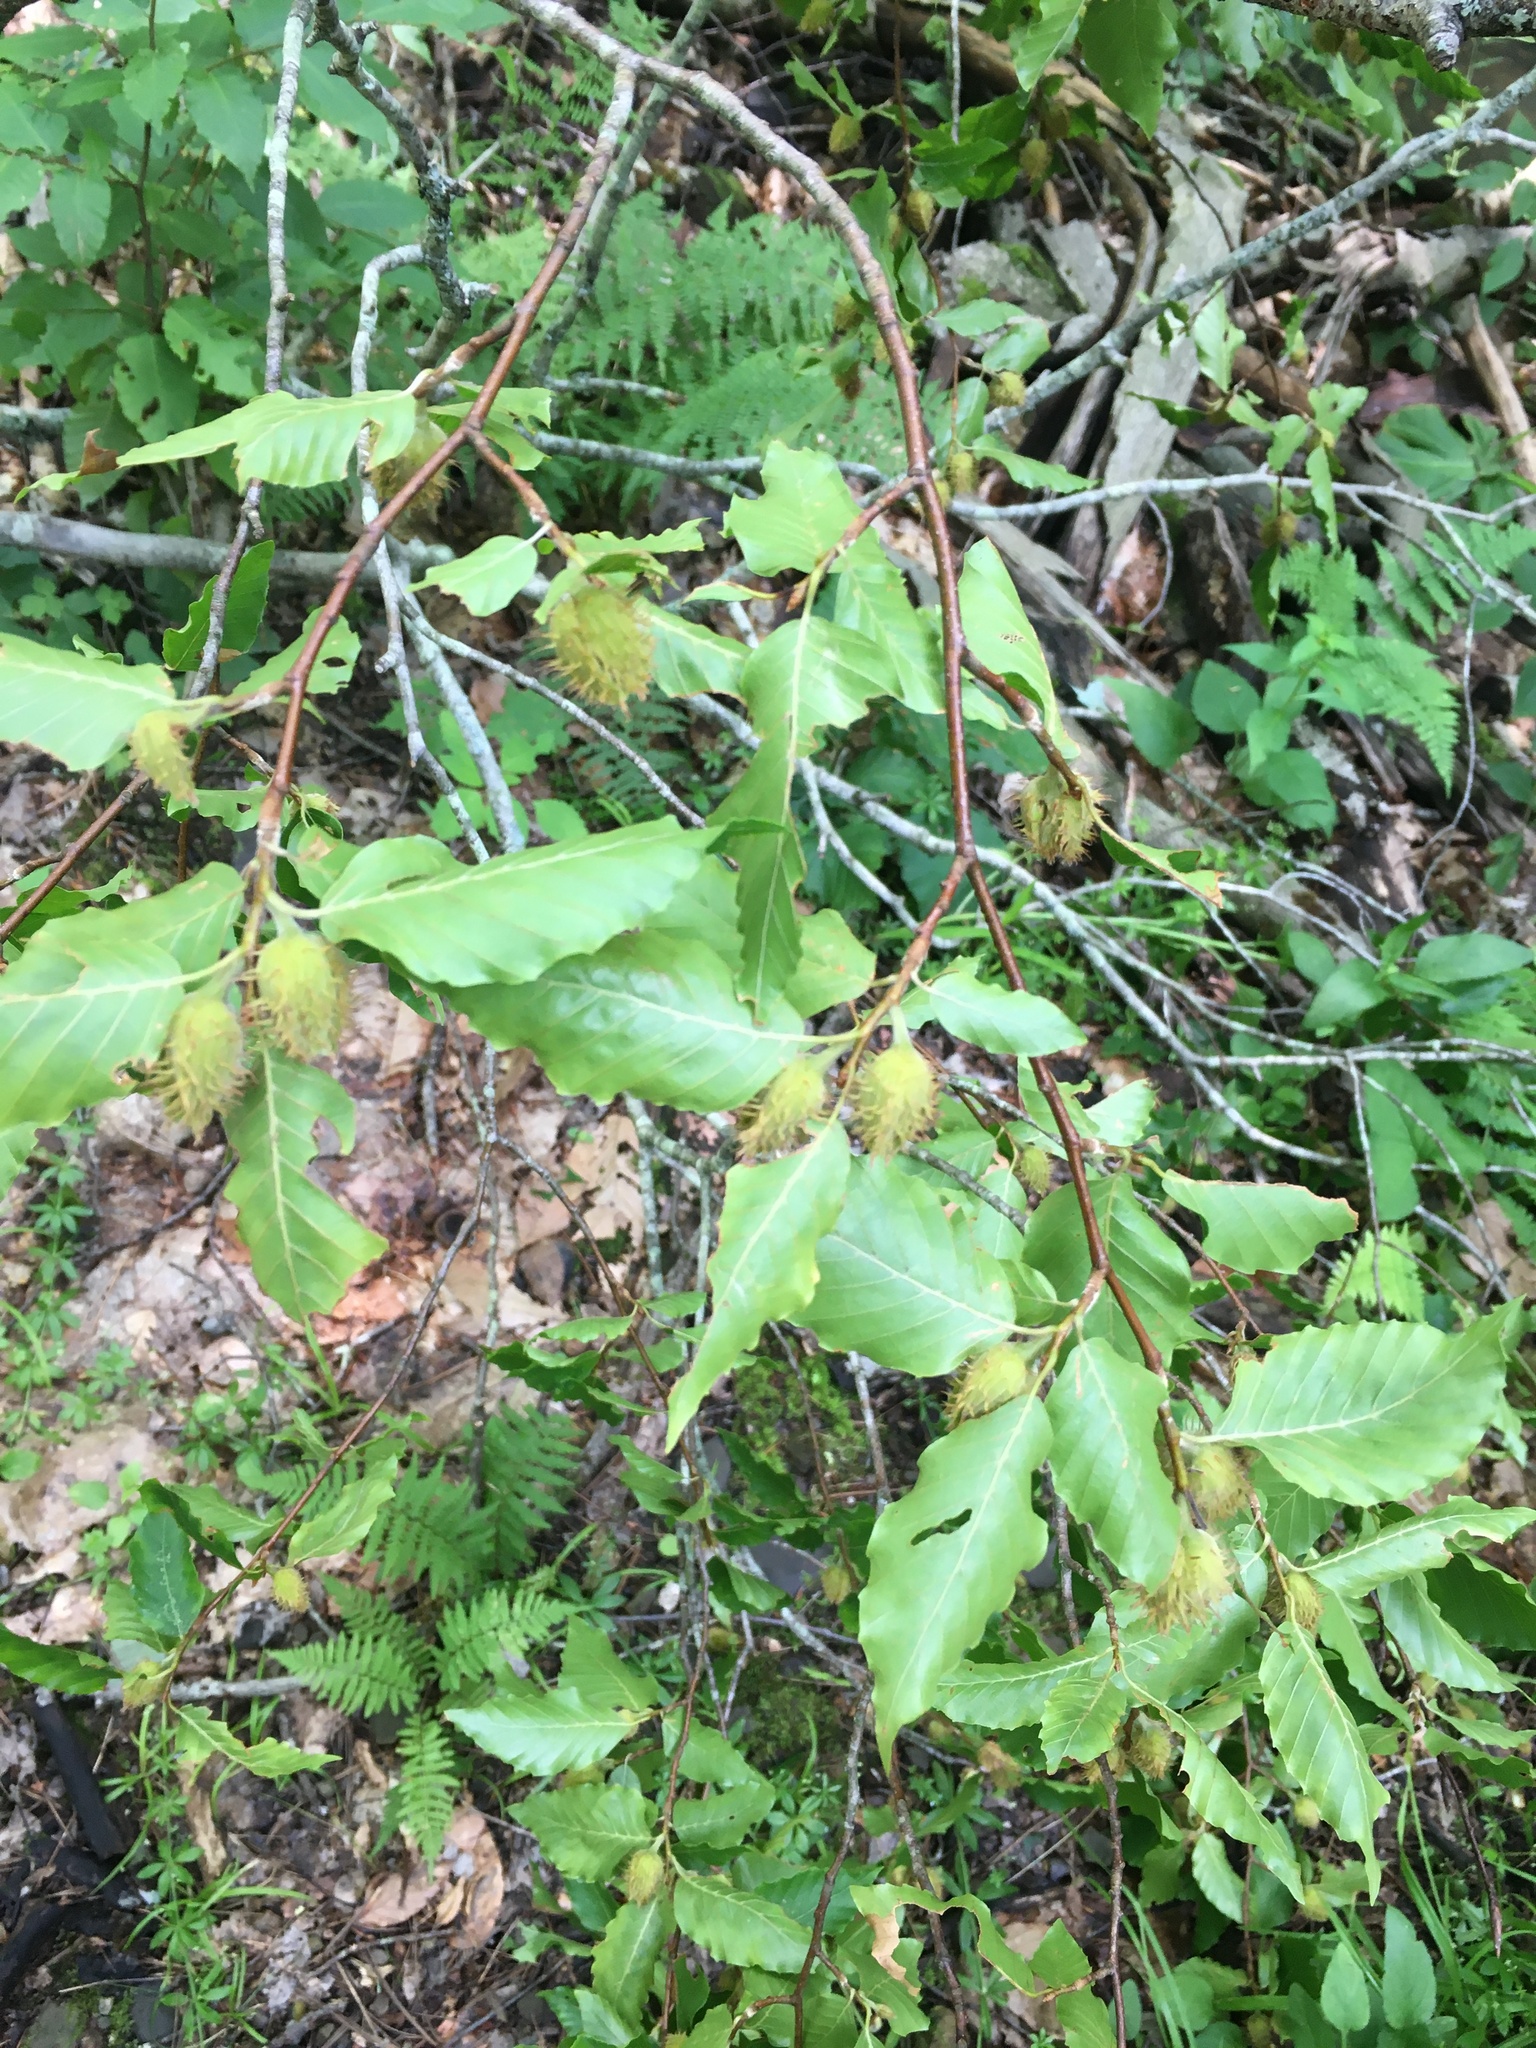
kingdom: Plantae
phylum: Tracheophyta
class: Magnoliopsida
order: Fagales
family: Fagaceae
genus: Fagus
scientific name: Fagus grandifolia
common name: American beech
